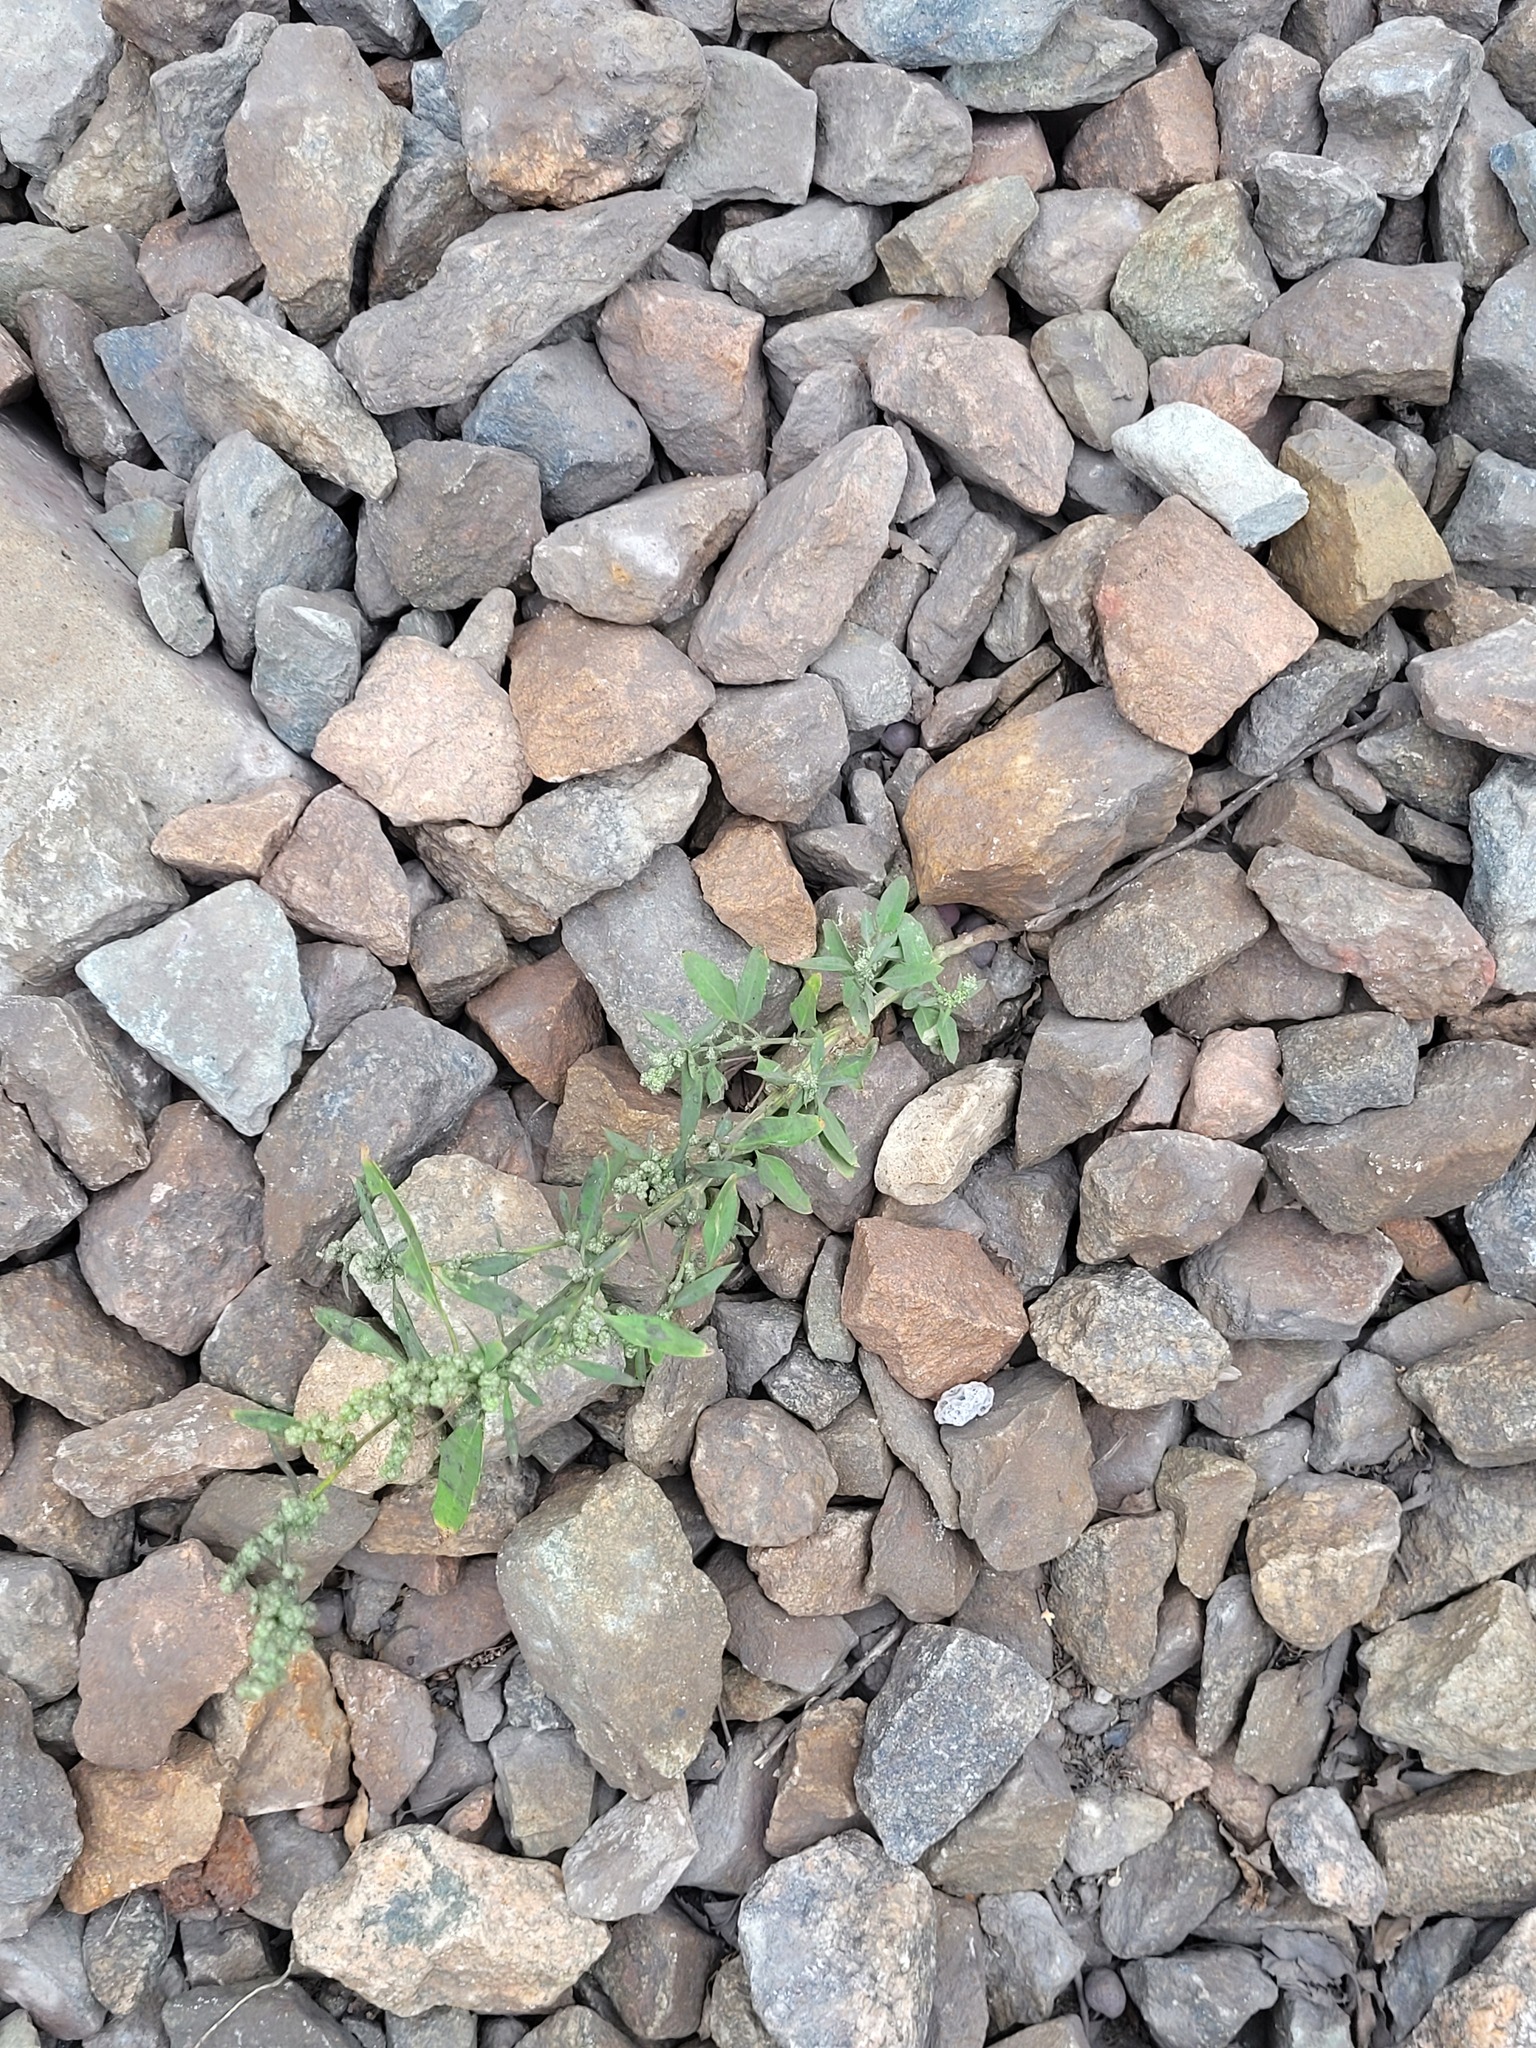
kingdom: Plantae
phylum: Tracheophyta
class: Magnoliopsida
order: Caryophyllales
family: Amaranthaceae
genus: Chenopodium
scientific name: Chenopodium album
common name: Fat-hen
